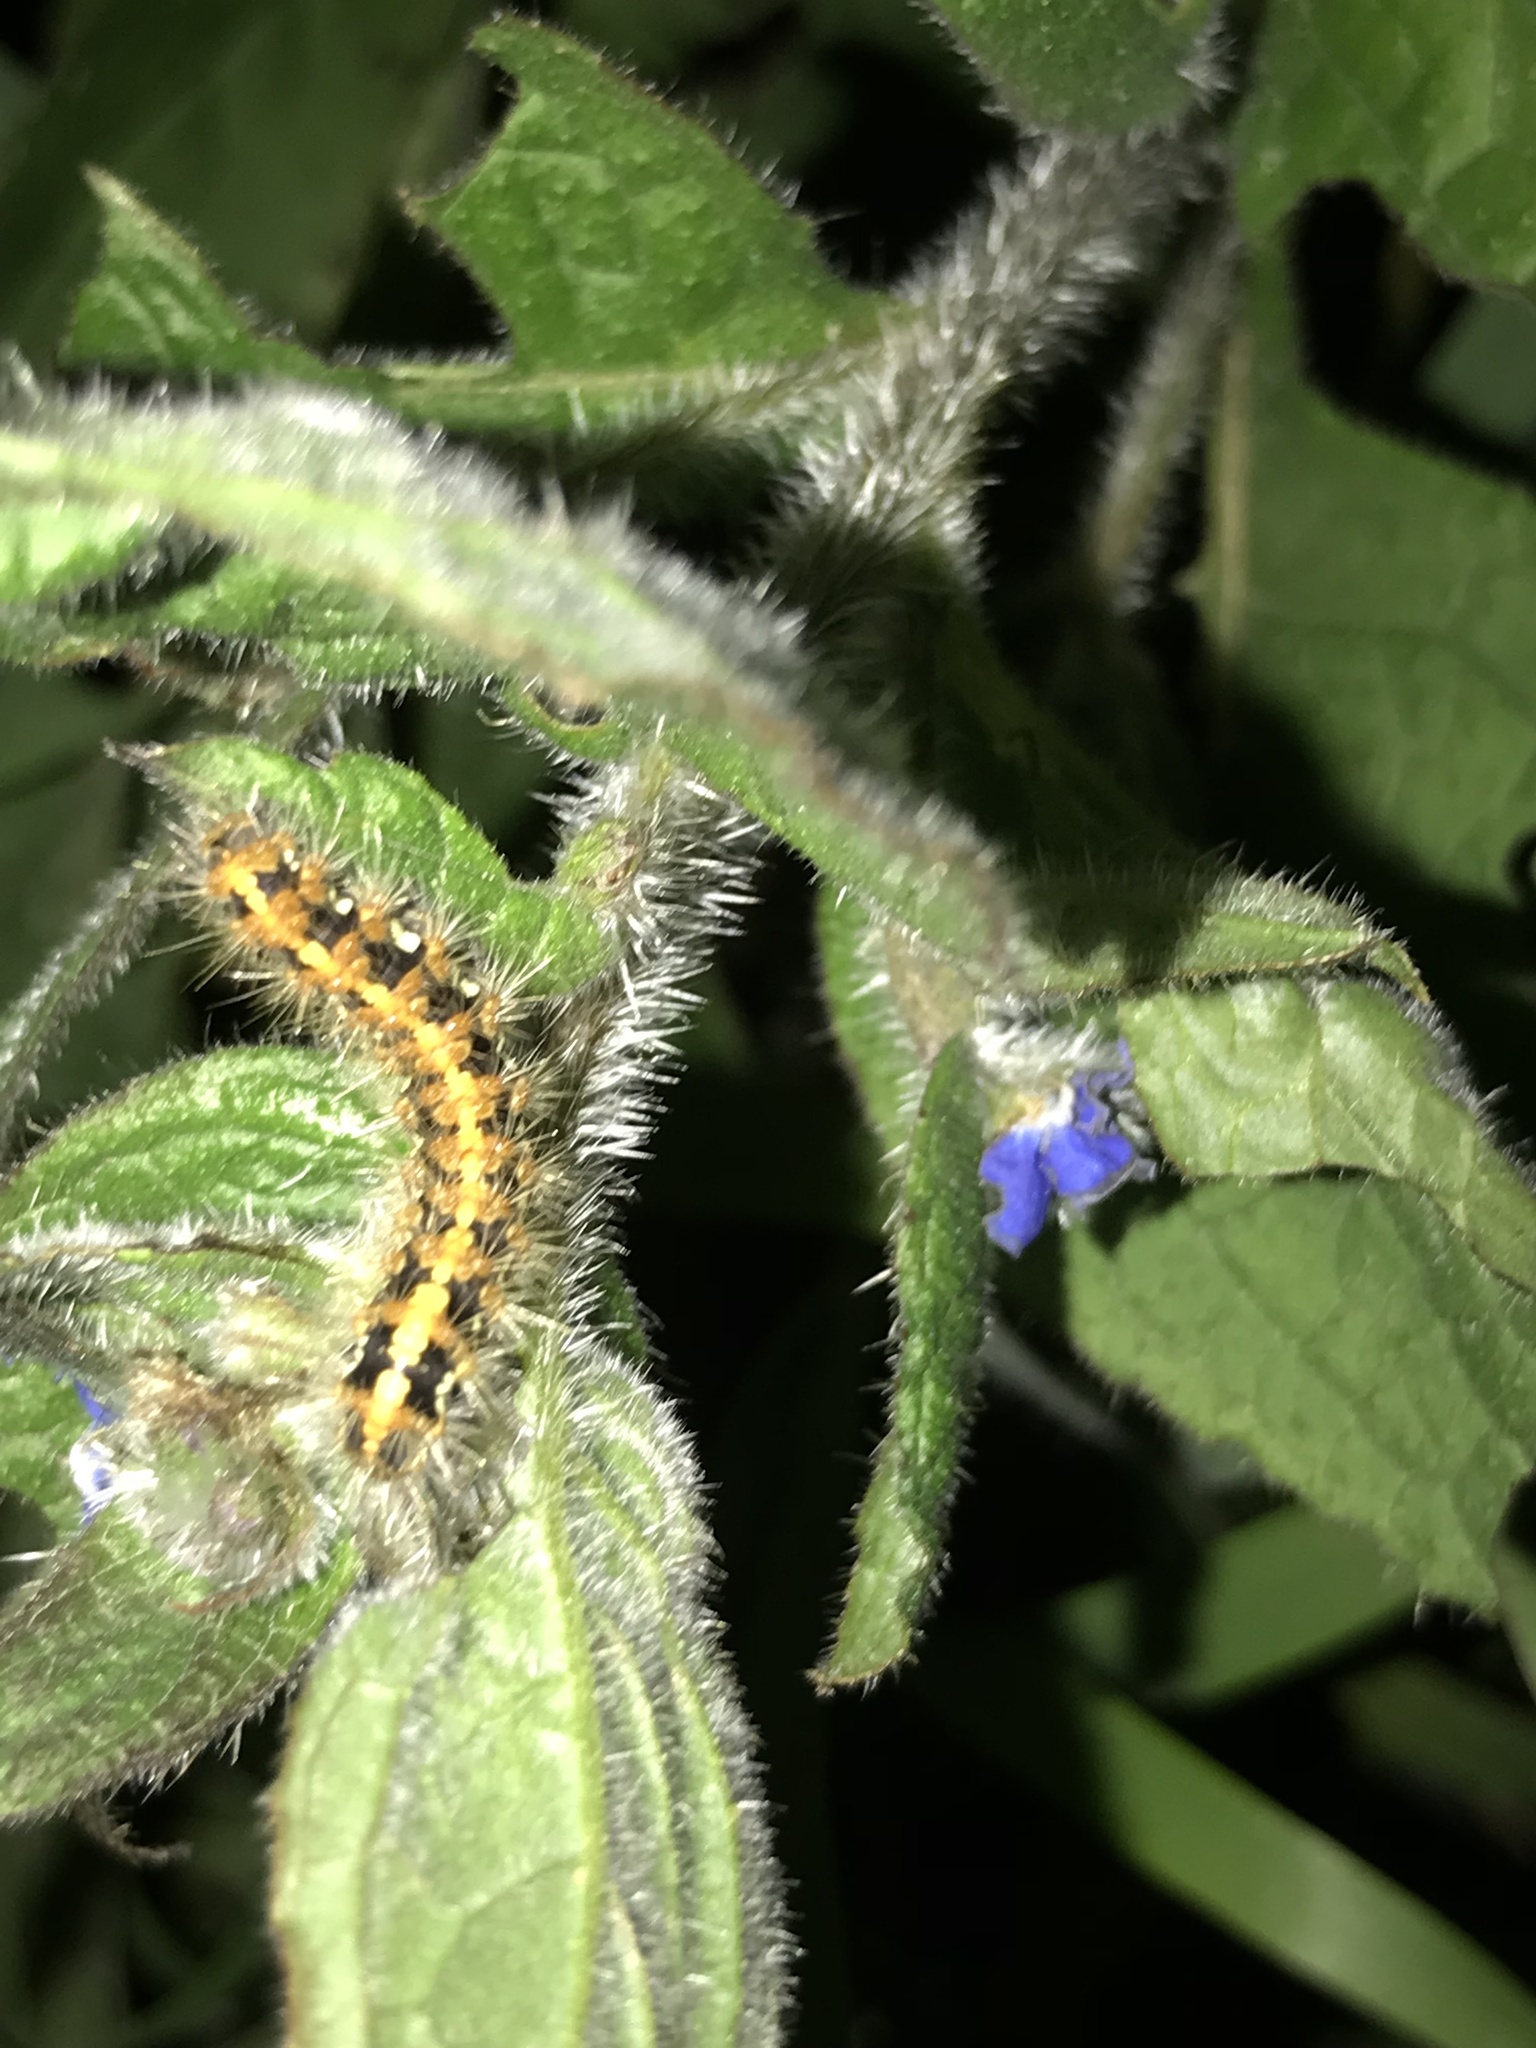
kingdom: Animalia
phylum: Arthropoda
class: Insecta
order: Lepidoptera
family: Erebidae
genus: Euplagia
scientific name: Euplagia quadripunctaria
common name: Jersey tiger
